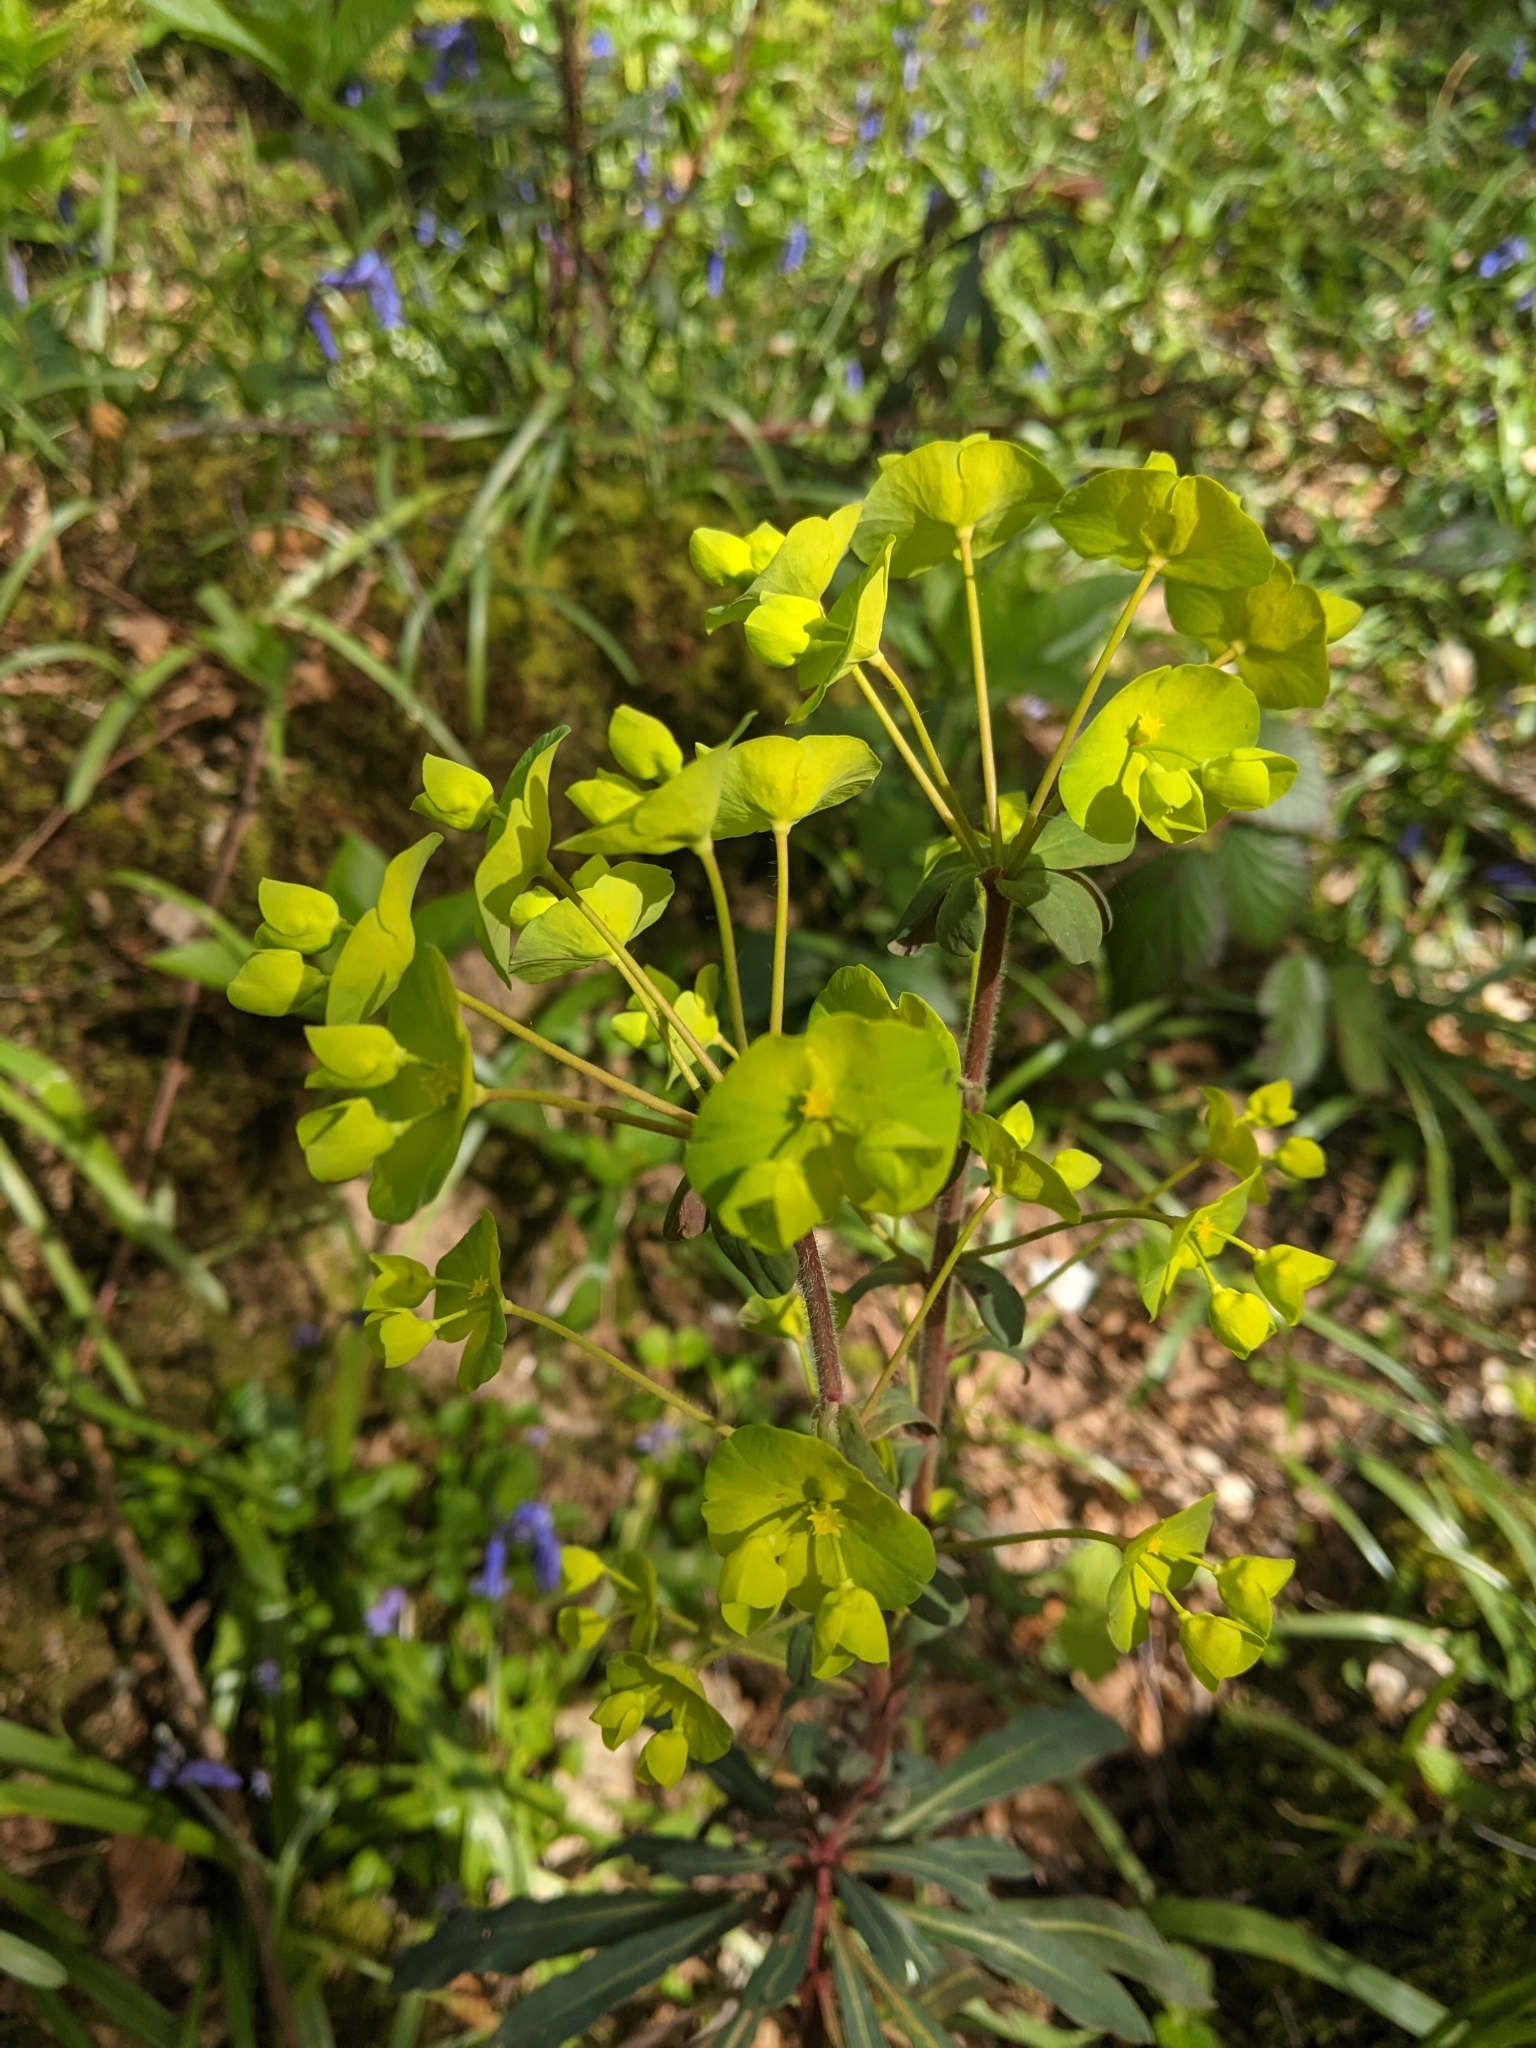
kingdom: Plantae
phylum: Tracheophyta
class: Magnoliopsida
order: Malpighiales
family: Euphorbiaceae
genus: Euphorbia
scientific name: Euphorbia amygdaloides
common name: Wood spurge
